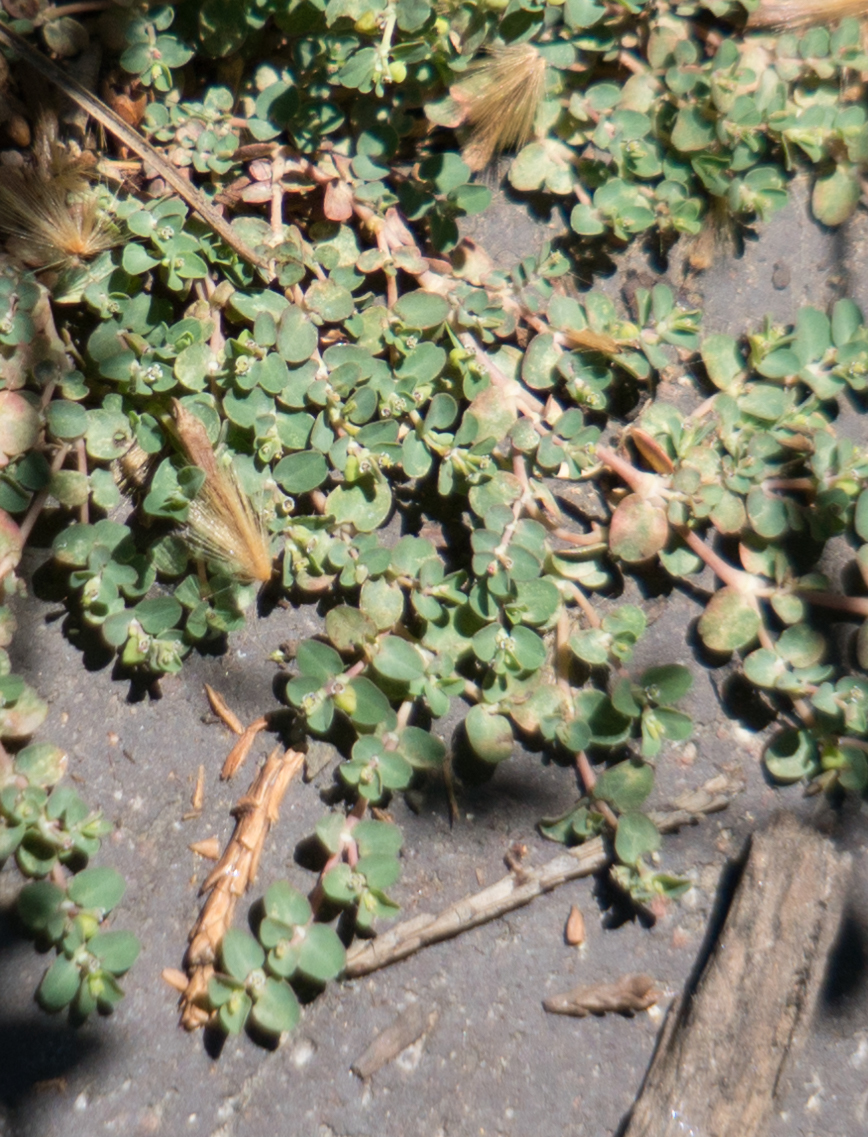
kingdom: Plantae
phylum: Tracheophyta
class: Magnoliopsida
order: Malpighiales
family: Euphorbiaceae
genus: Euphorbia
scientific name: Euphorbia serpens
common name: Matted sandmat
